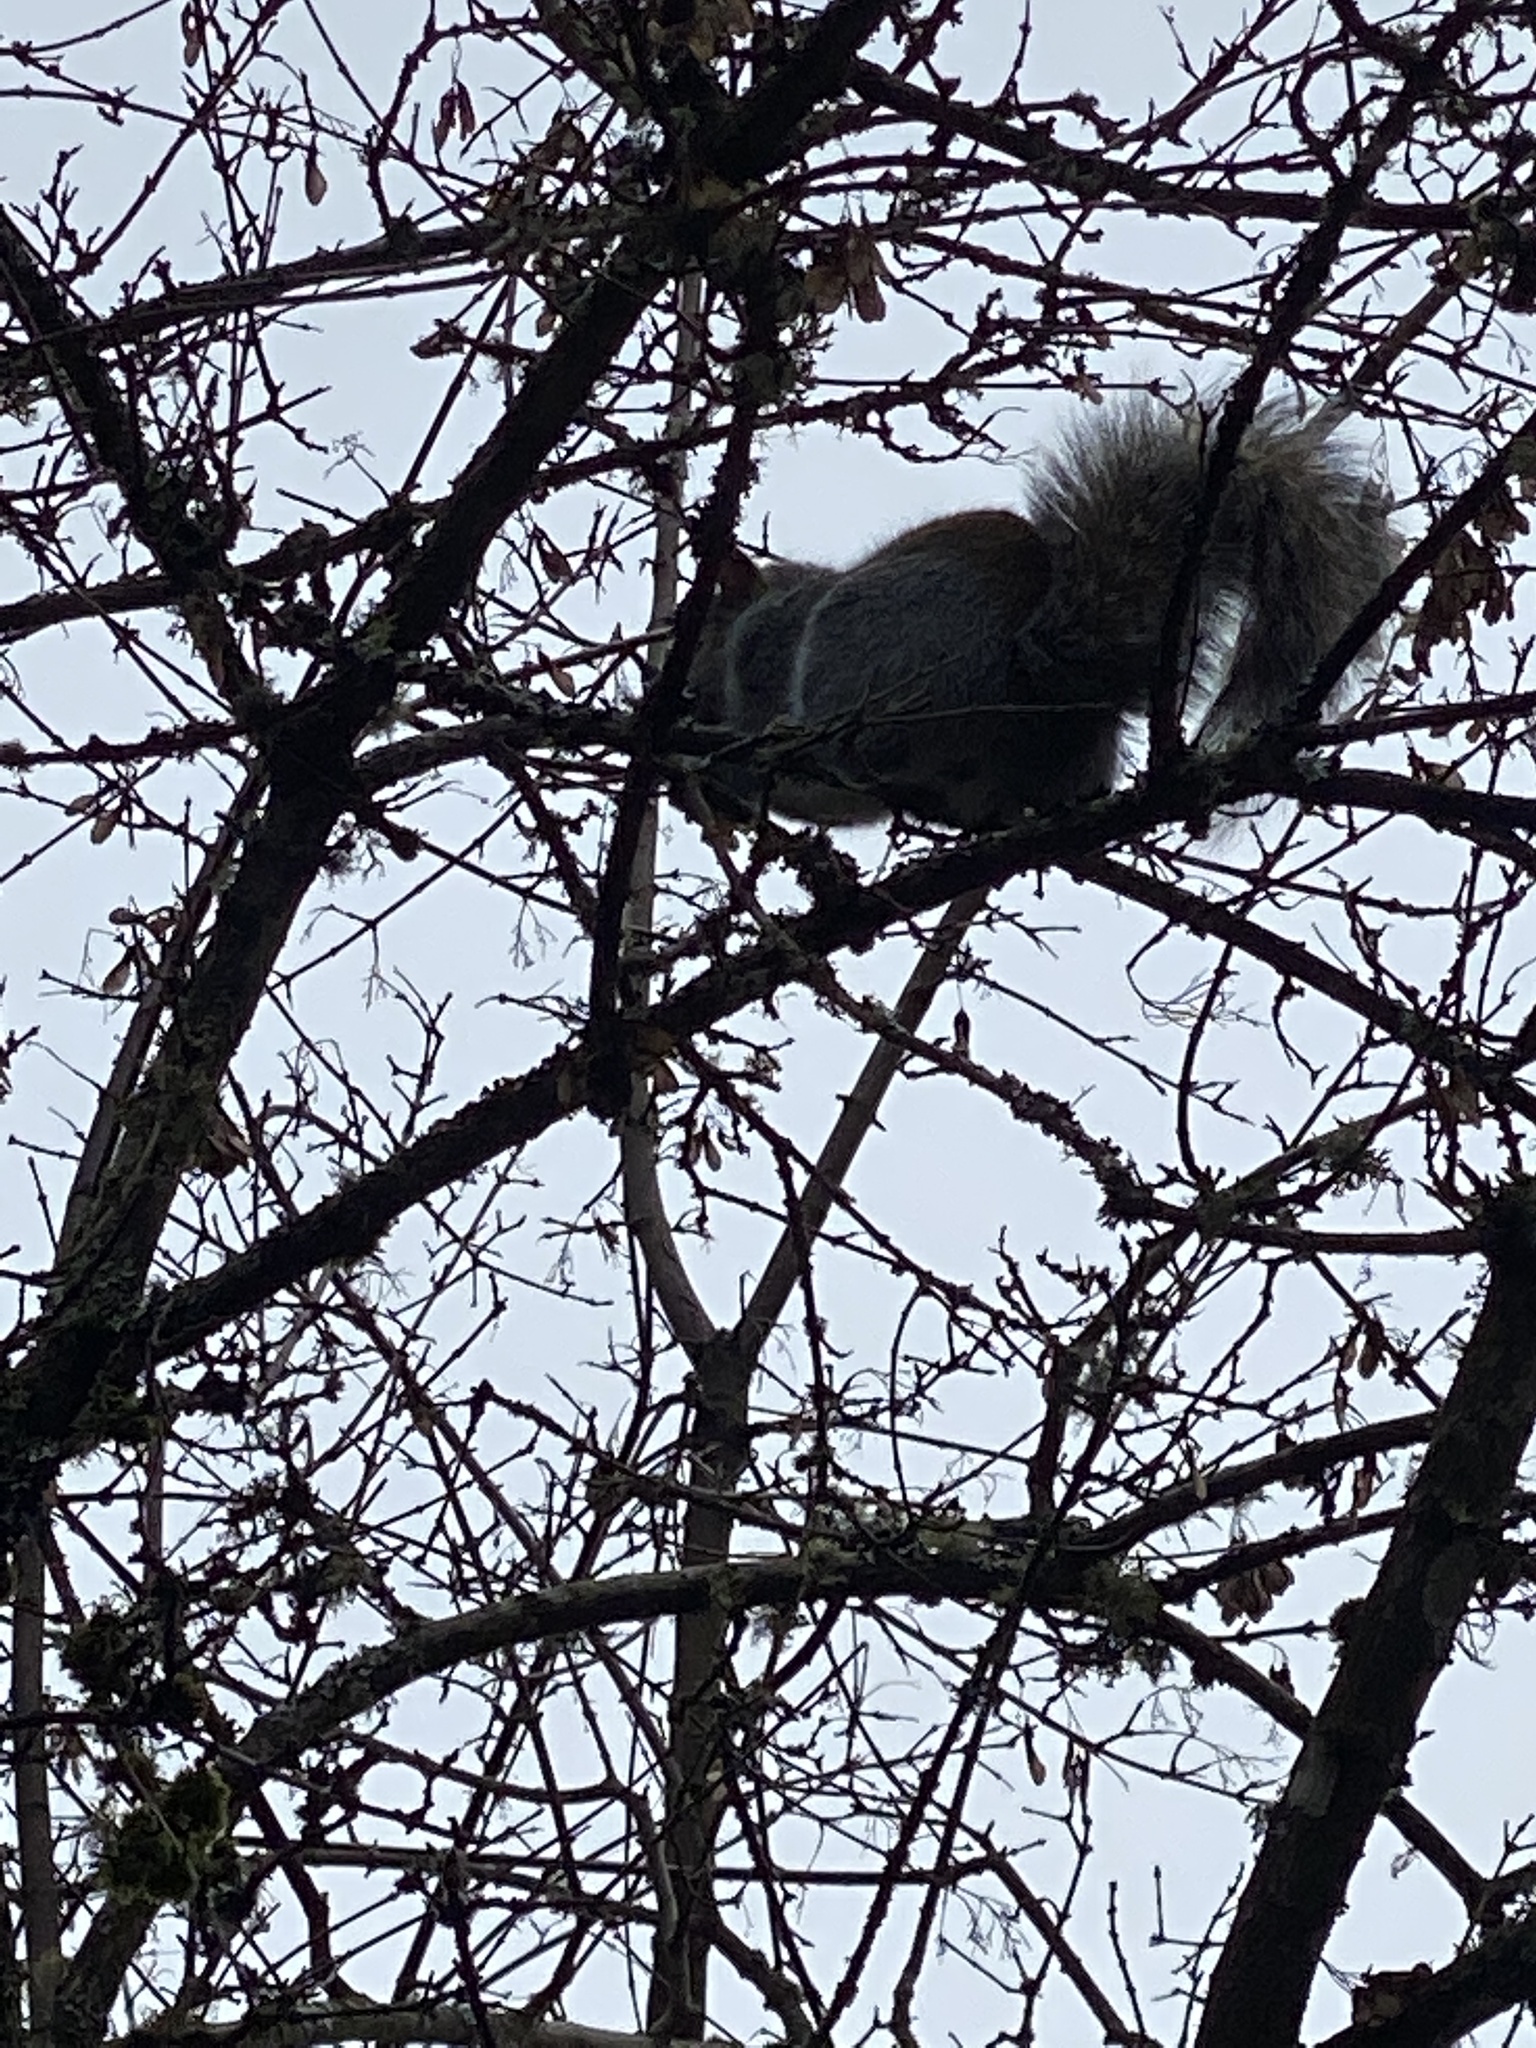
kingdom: Animalia
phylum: Chordata
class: Mammalia
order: Rodentia
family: Sciuridae
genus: Sciurus
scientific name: Sciurus carolinensis
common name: Eastern gray squirrel
